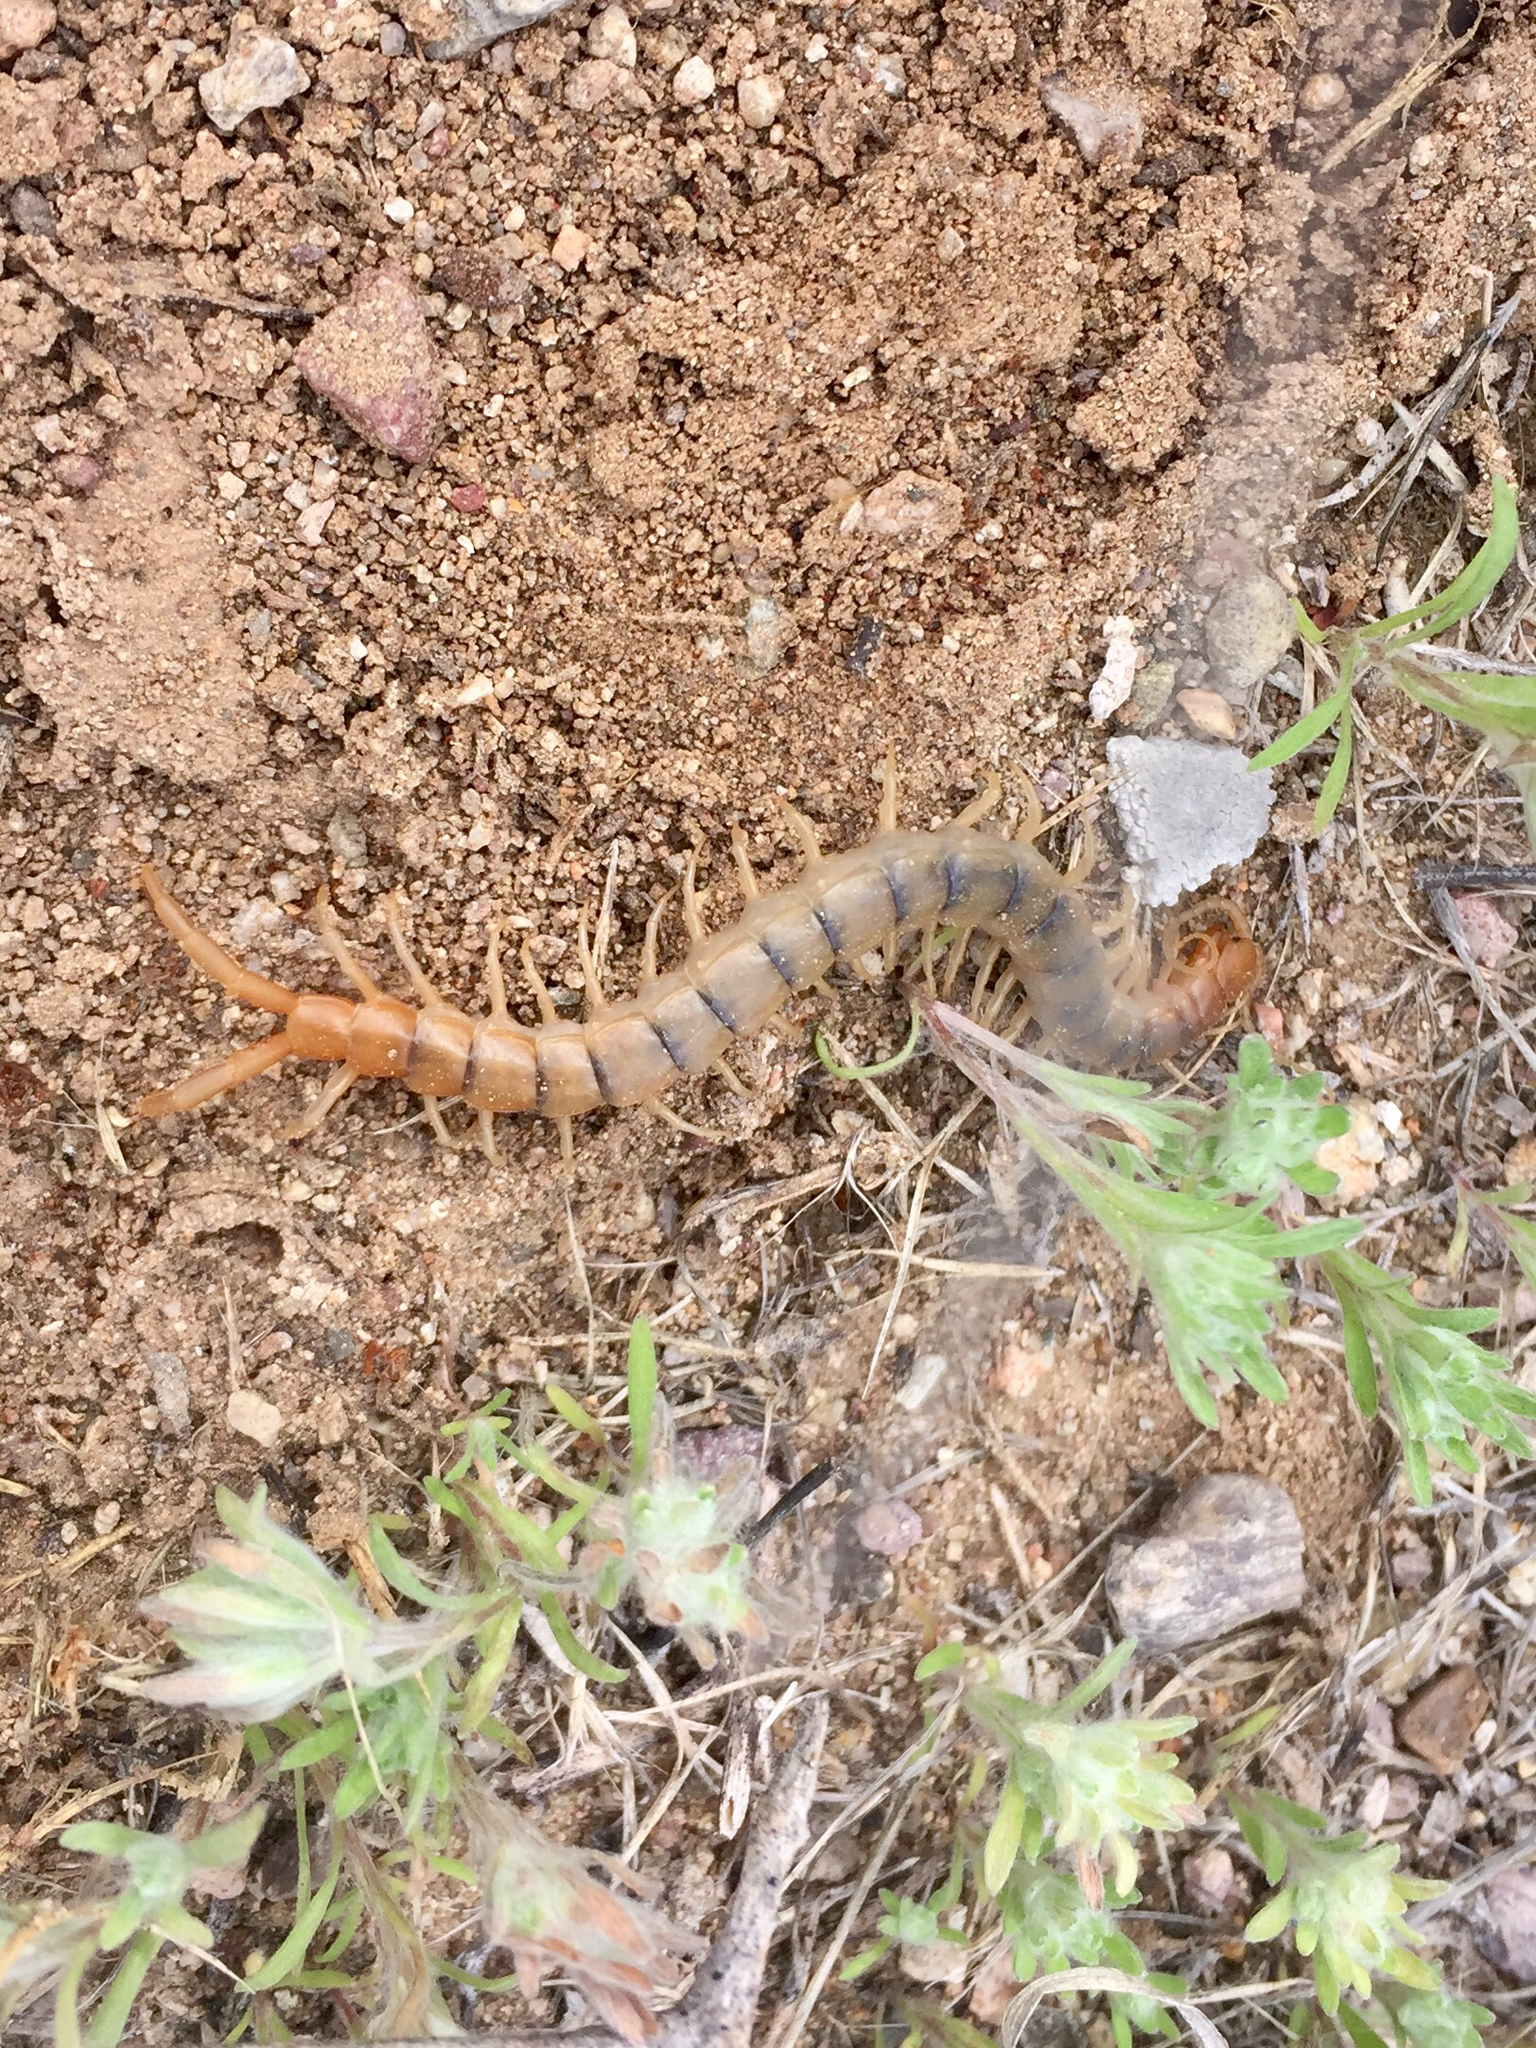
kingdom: Animalia
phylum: Arthropoda
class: Chilopoda
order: Scolopendromorpha
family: Scolopendridae
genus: Scolopendra
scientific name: Scolopendra polymorpha
